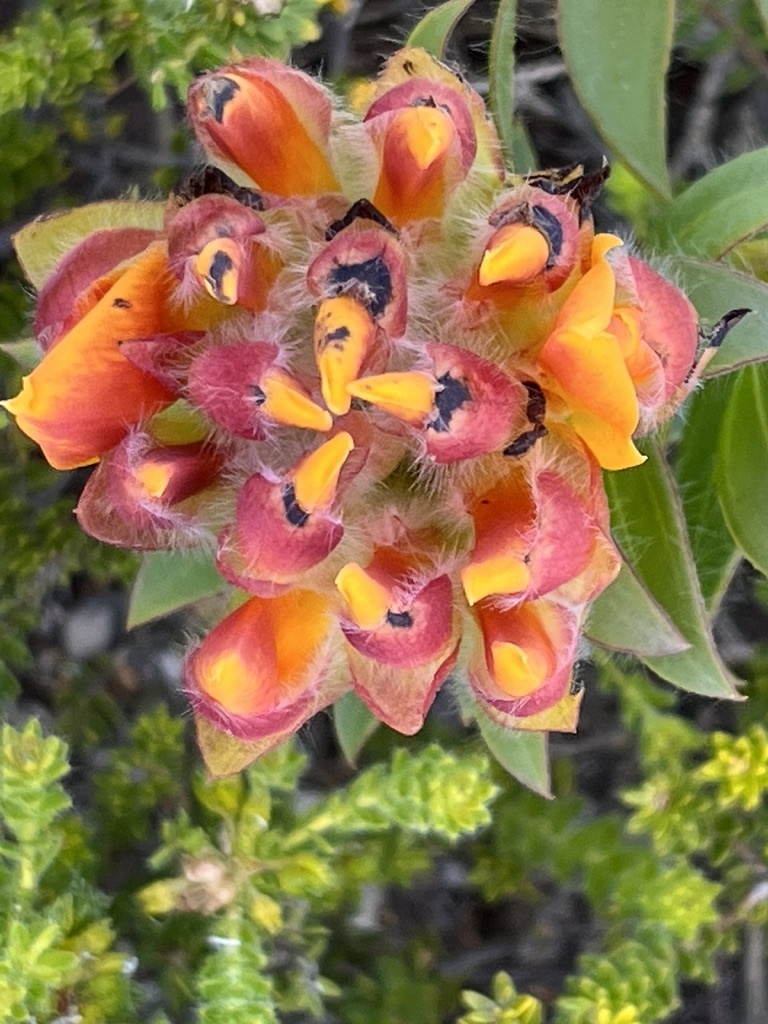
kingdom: Plantae
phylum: Tracheophyta
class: Magnoliopsida
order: Fabales
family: Fabaceae
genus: Liparia
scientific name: Liparia splendens
